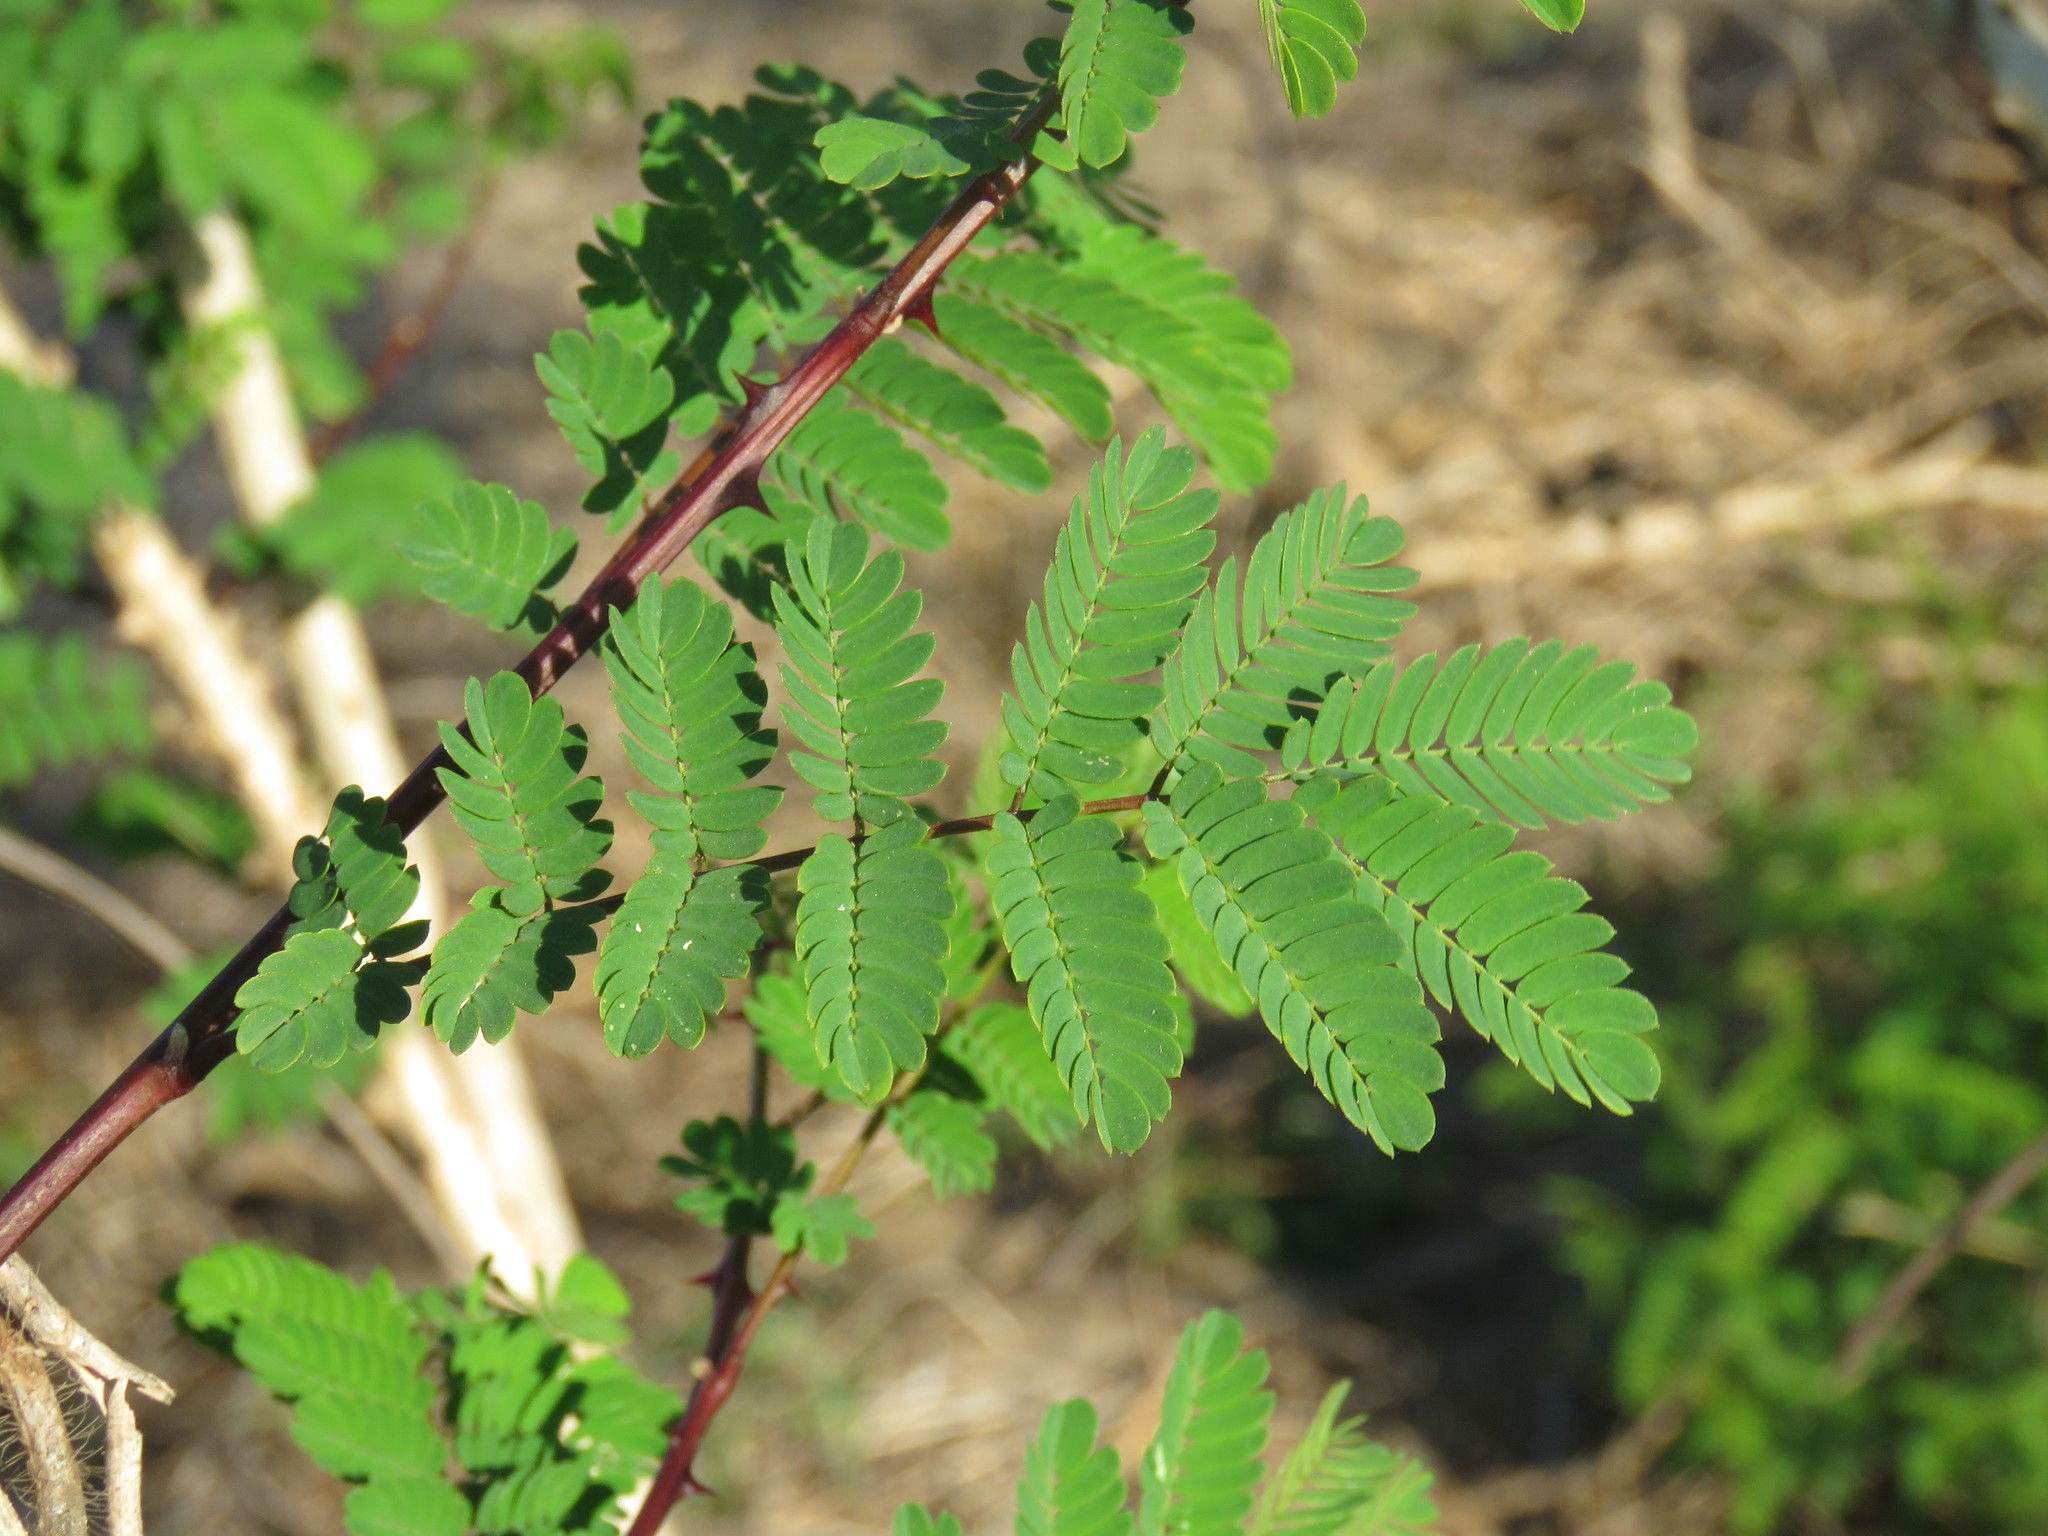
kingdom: Plantae
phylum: Tracheophyta
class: Magnoliopsida
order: Fabales
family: Fabaceae
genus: Mimosa
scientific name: Mimosa costenya
